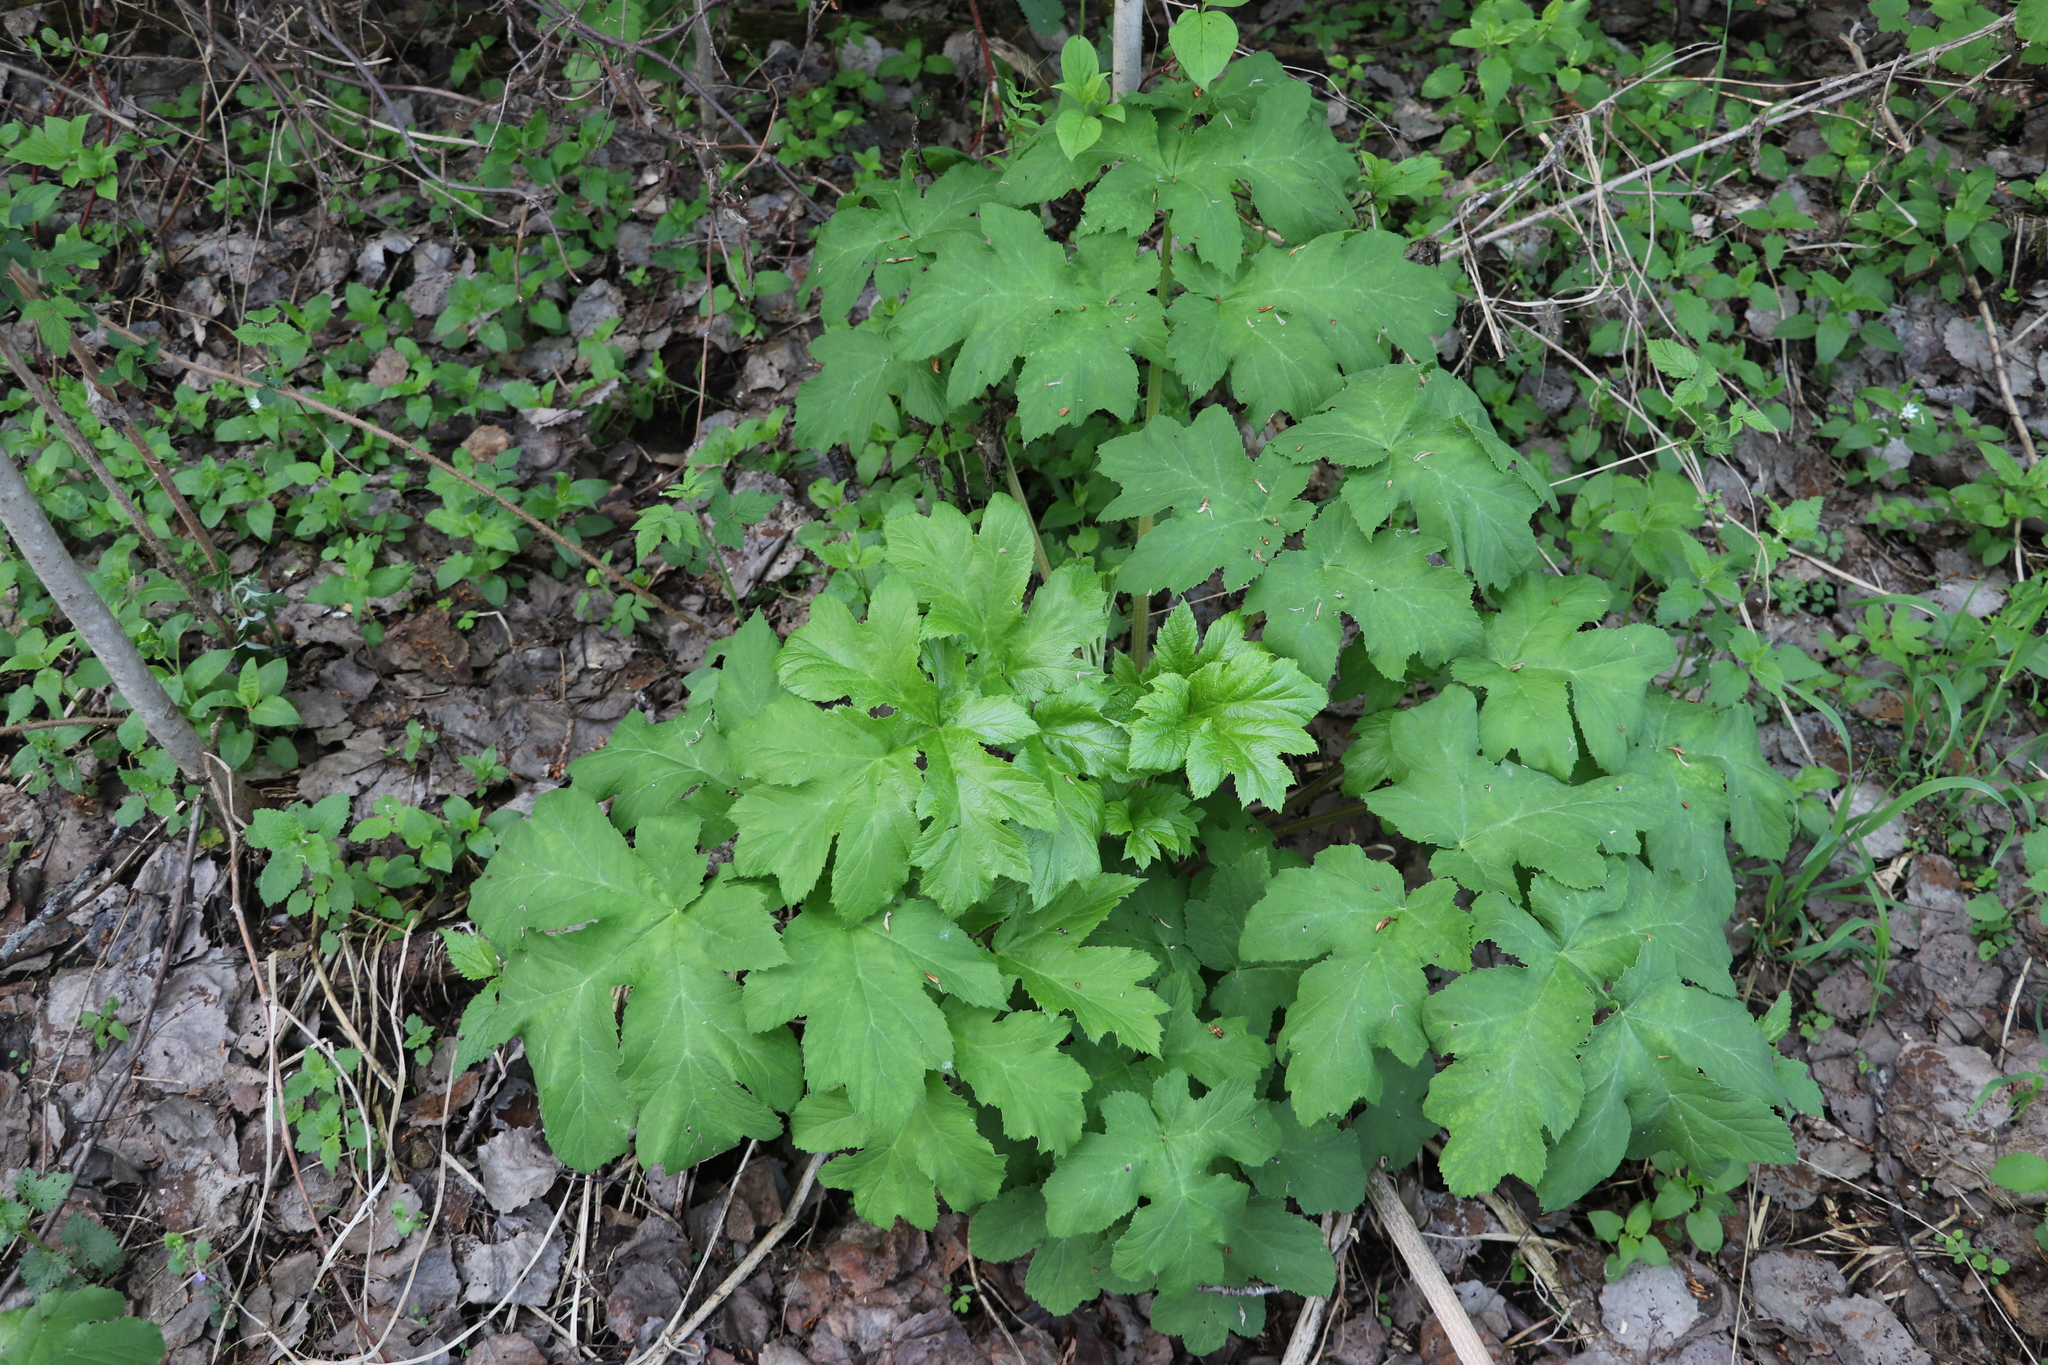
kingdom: Plantae
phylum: Tracheophyta
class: Magnoliopsida
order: Apiales
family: Apiaceae
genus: Heracleum
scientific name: Heracleum dissectum
